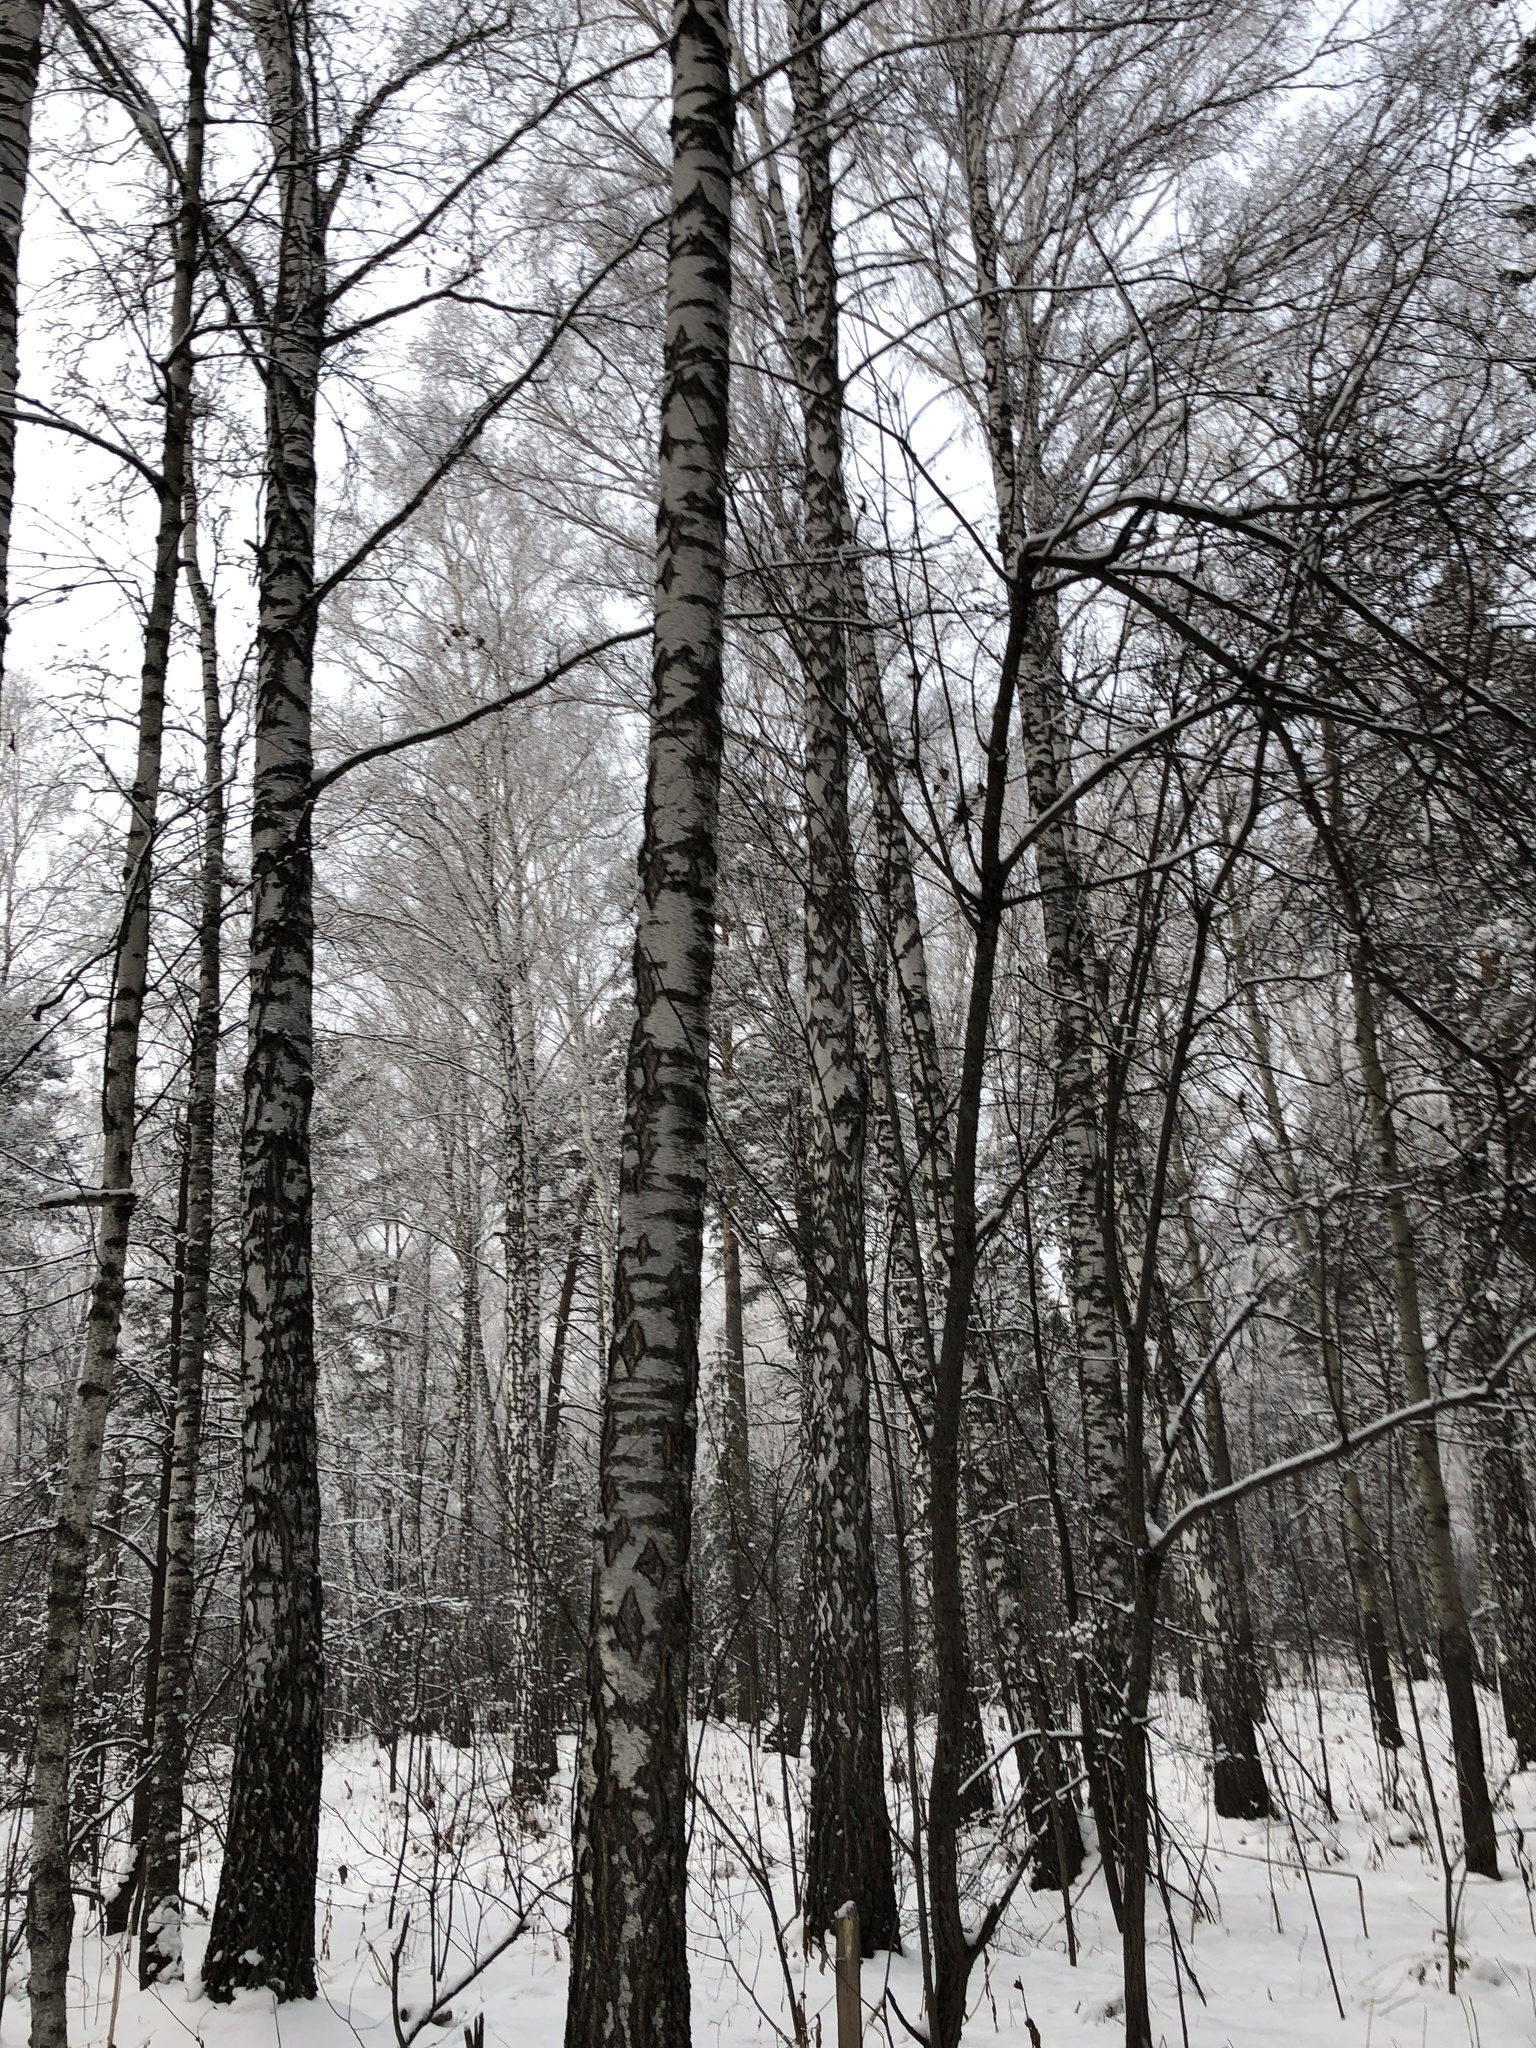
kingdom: Plantae
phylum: Tracheophyta
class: Magnoliopsida
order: Fagales
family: Betulaceae
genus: Betula
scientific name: Betula pendula
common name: Silver birch
